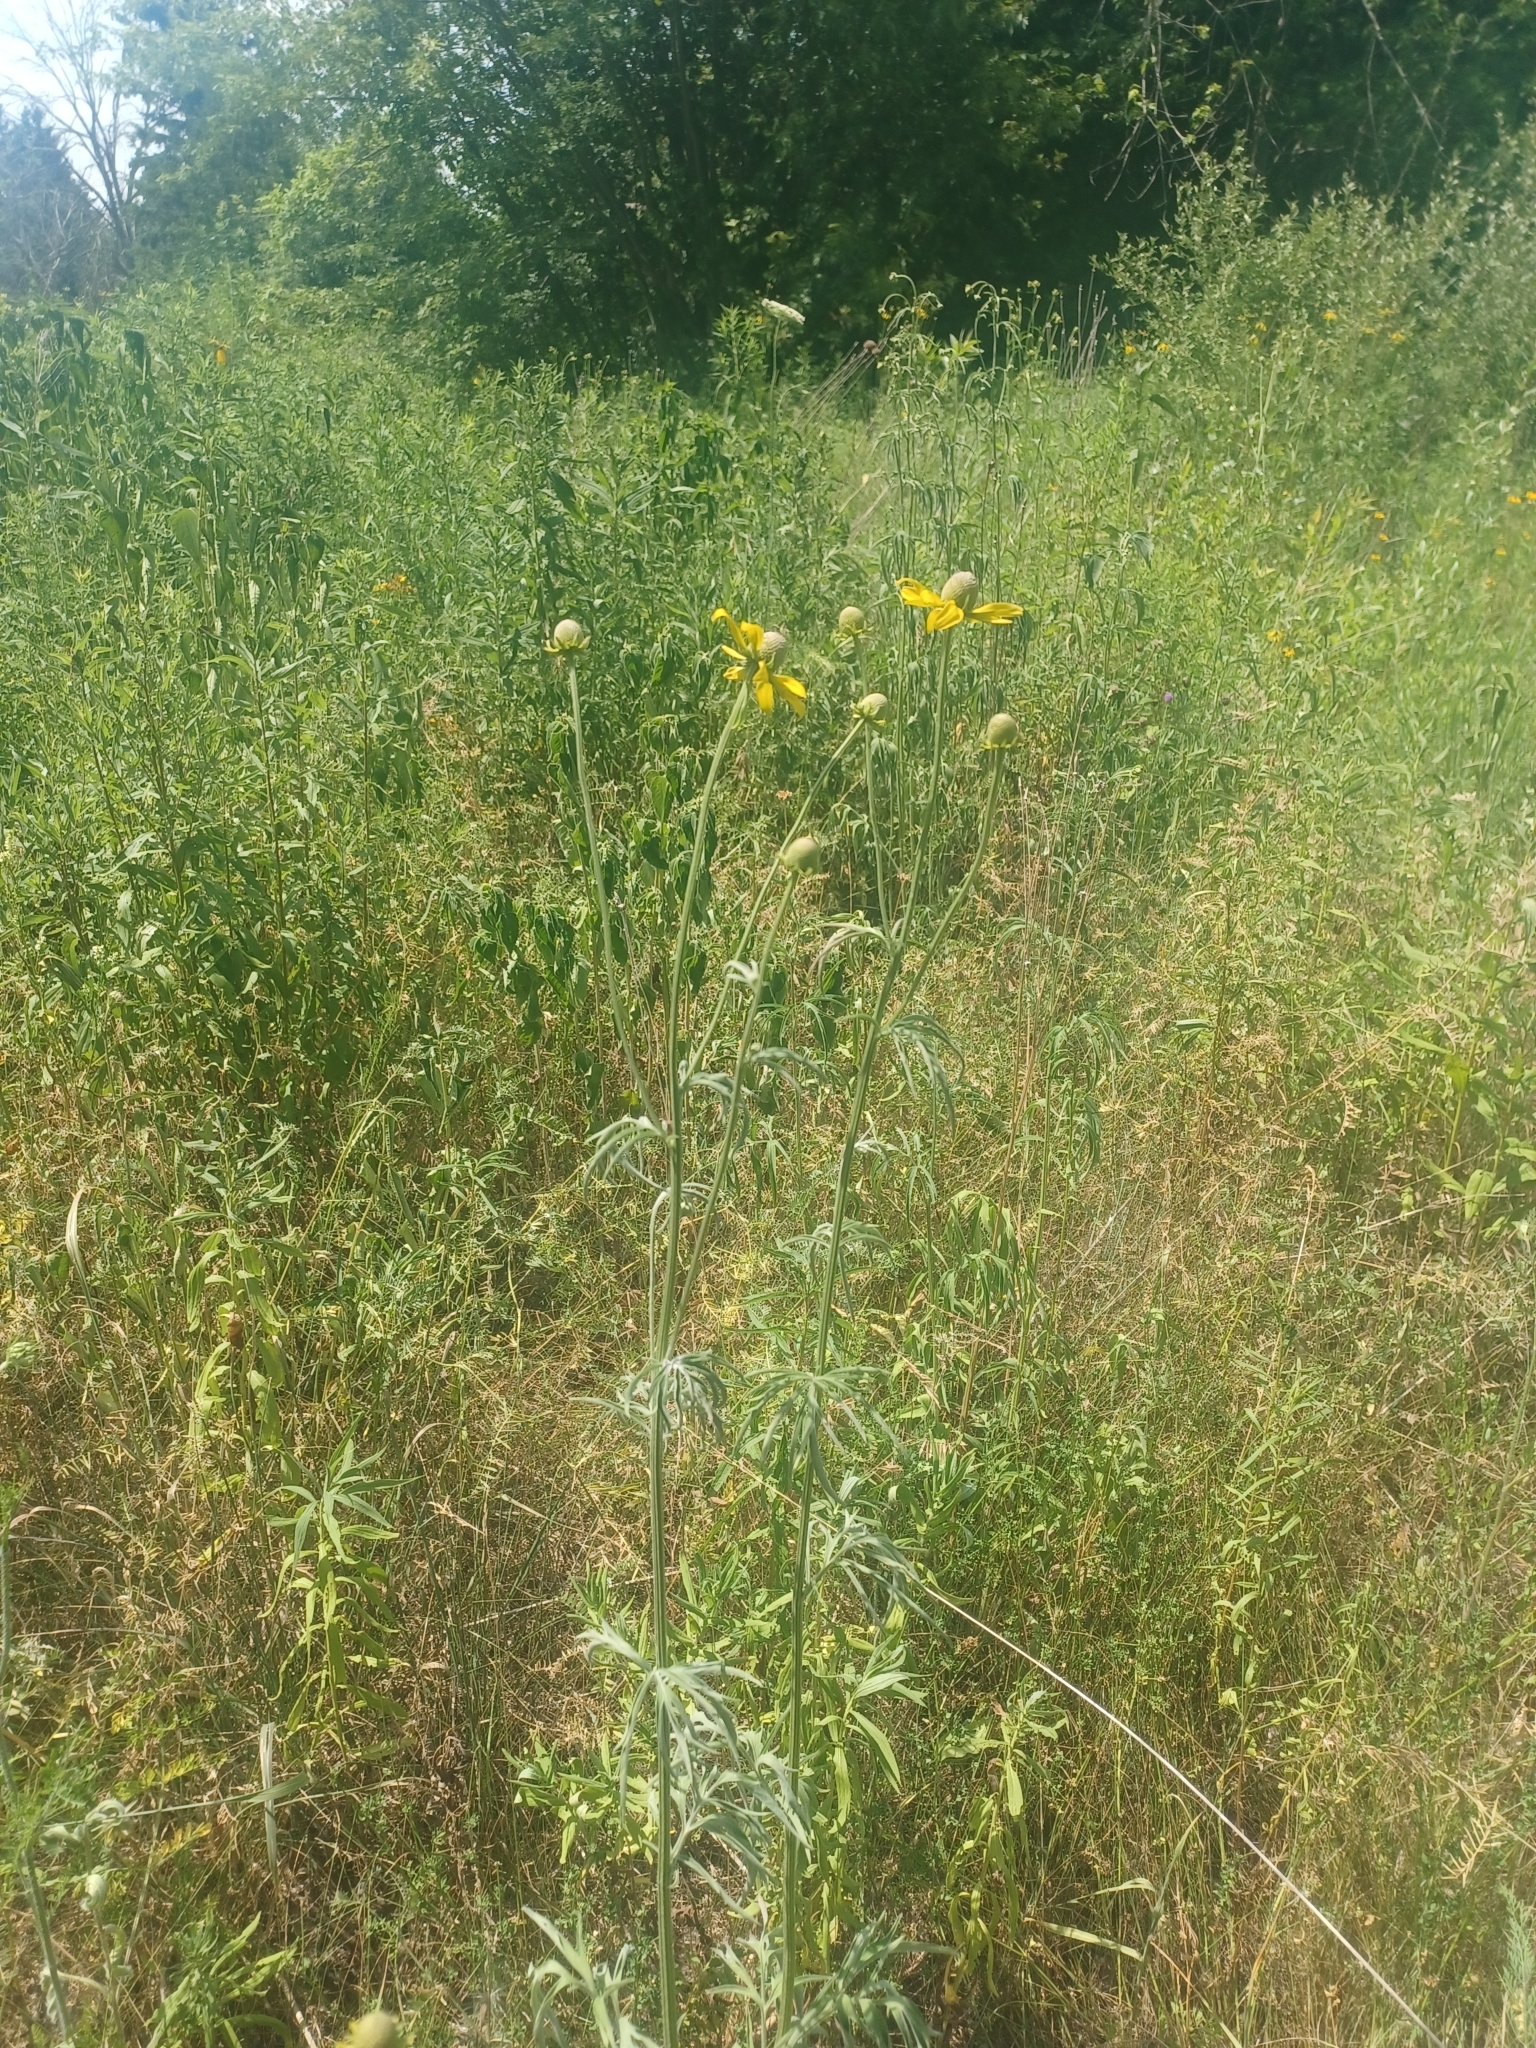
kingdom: Plantae
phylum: Tracheophyta
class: Magnoliopsida
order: Asterales
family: Asteraceae
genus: Ratibida
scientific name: Ratibida columnifera
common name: Prairie coneflower
